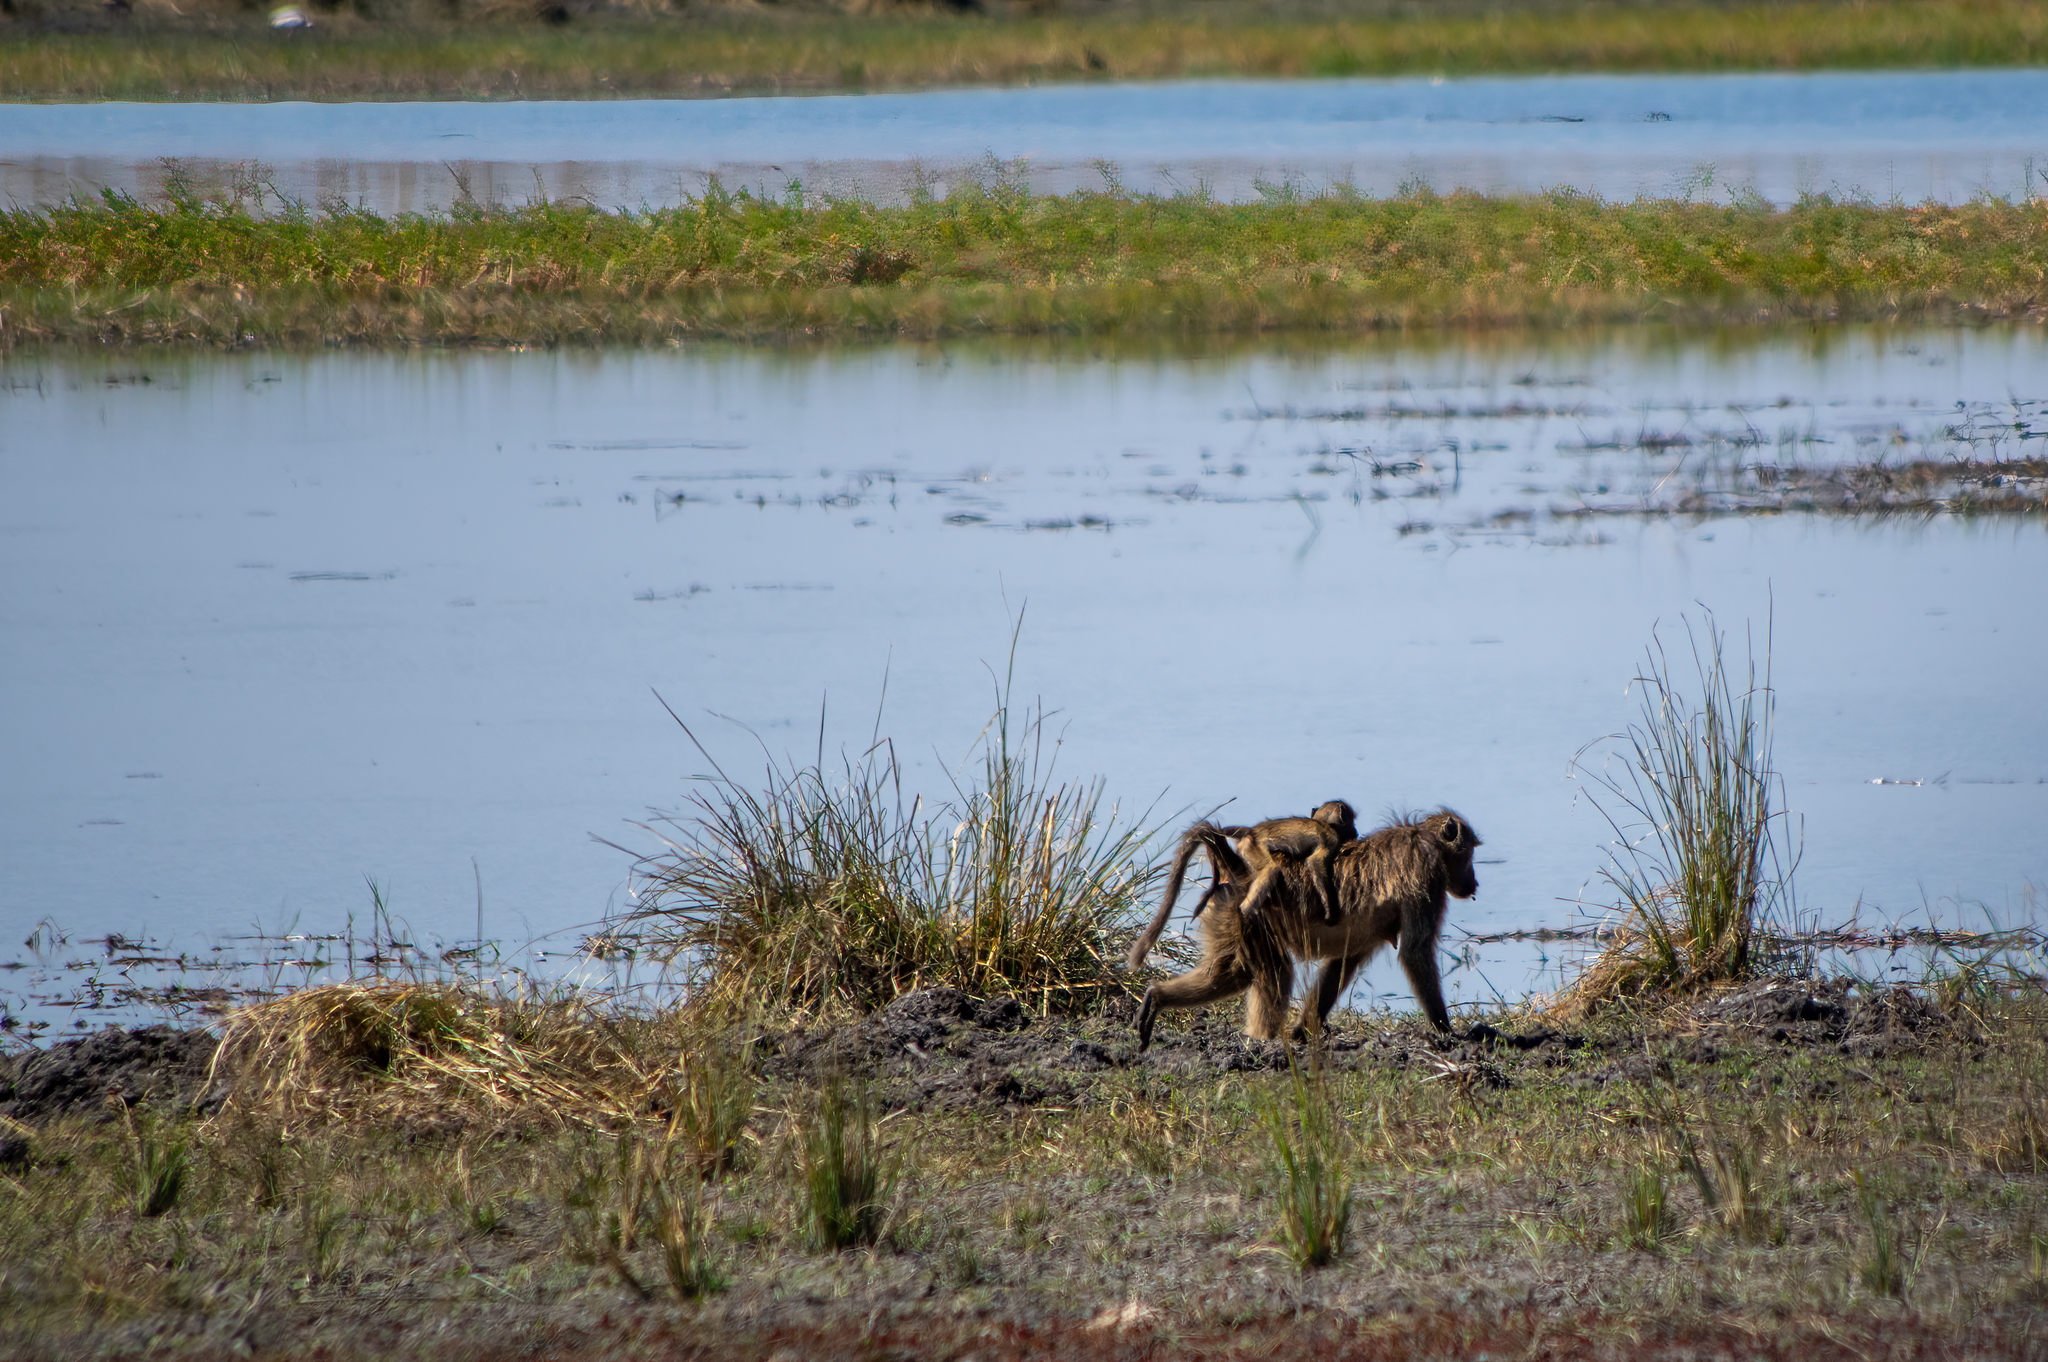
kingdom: Animalia
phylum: Chordata
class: Mammalia
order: Primates
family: Cercopithecidae
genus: Papio
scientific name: Papio ursinus
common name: Chacma baboon
